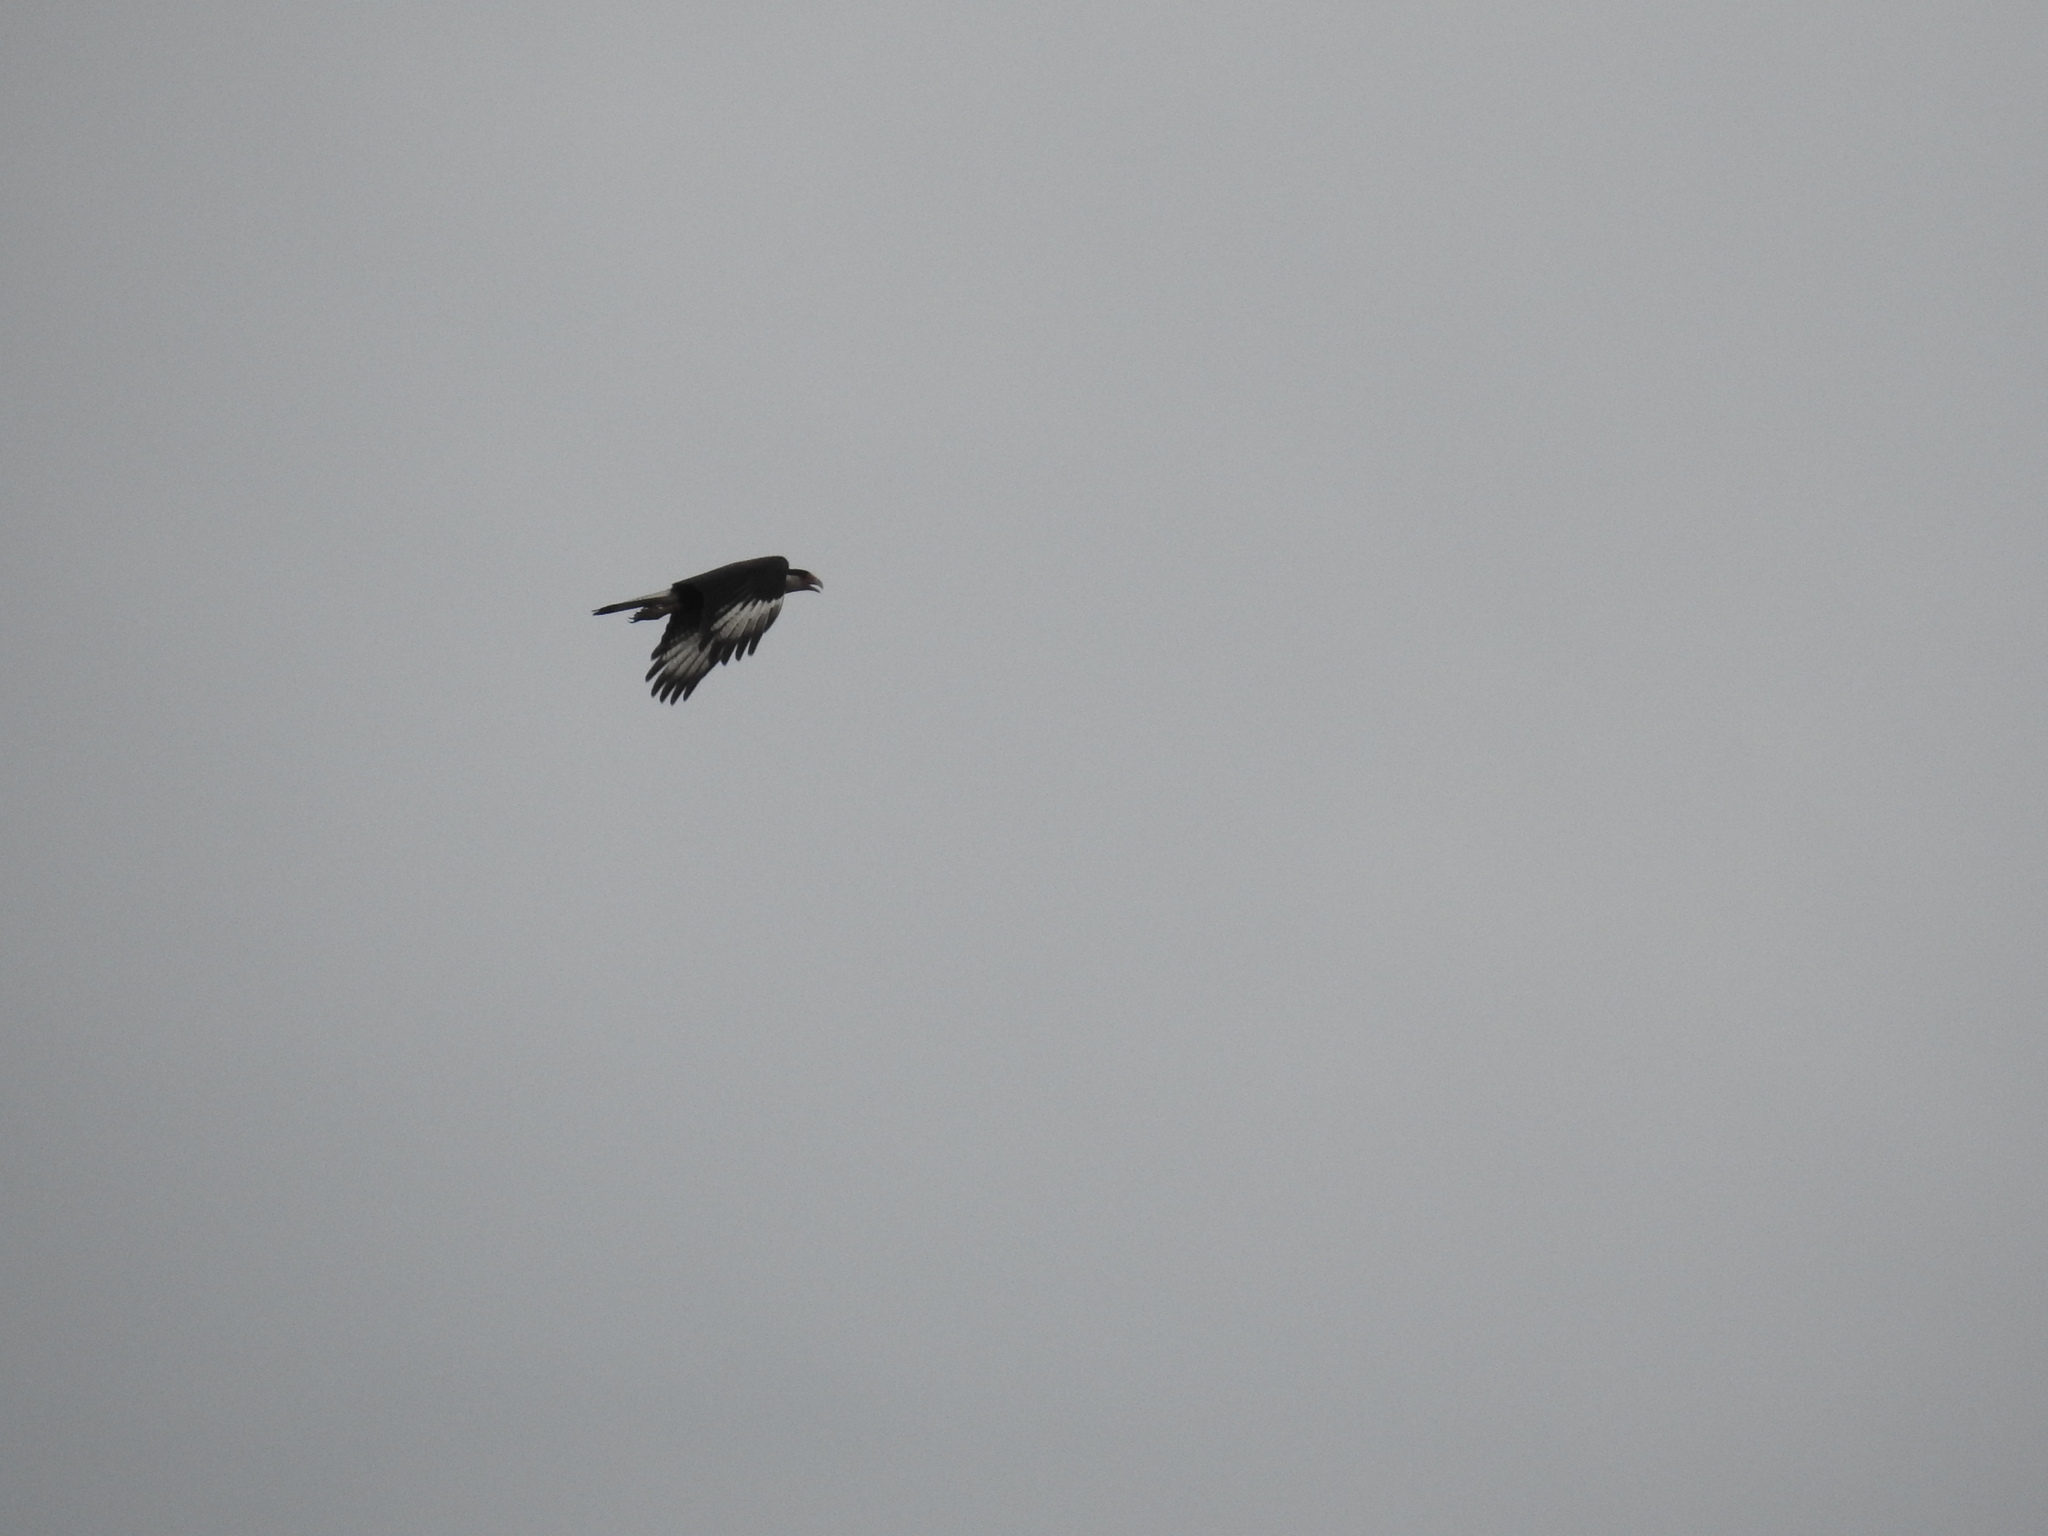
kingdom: Animalia
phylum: Chordata
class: Aves
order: Falconiformes
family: Falconidae
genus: Caracara
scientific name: Caracara plancus
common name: Southern caracara
